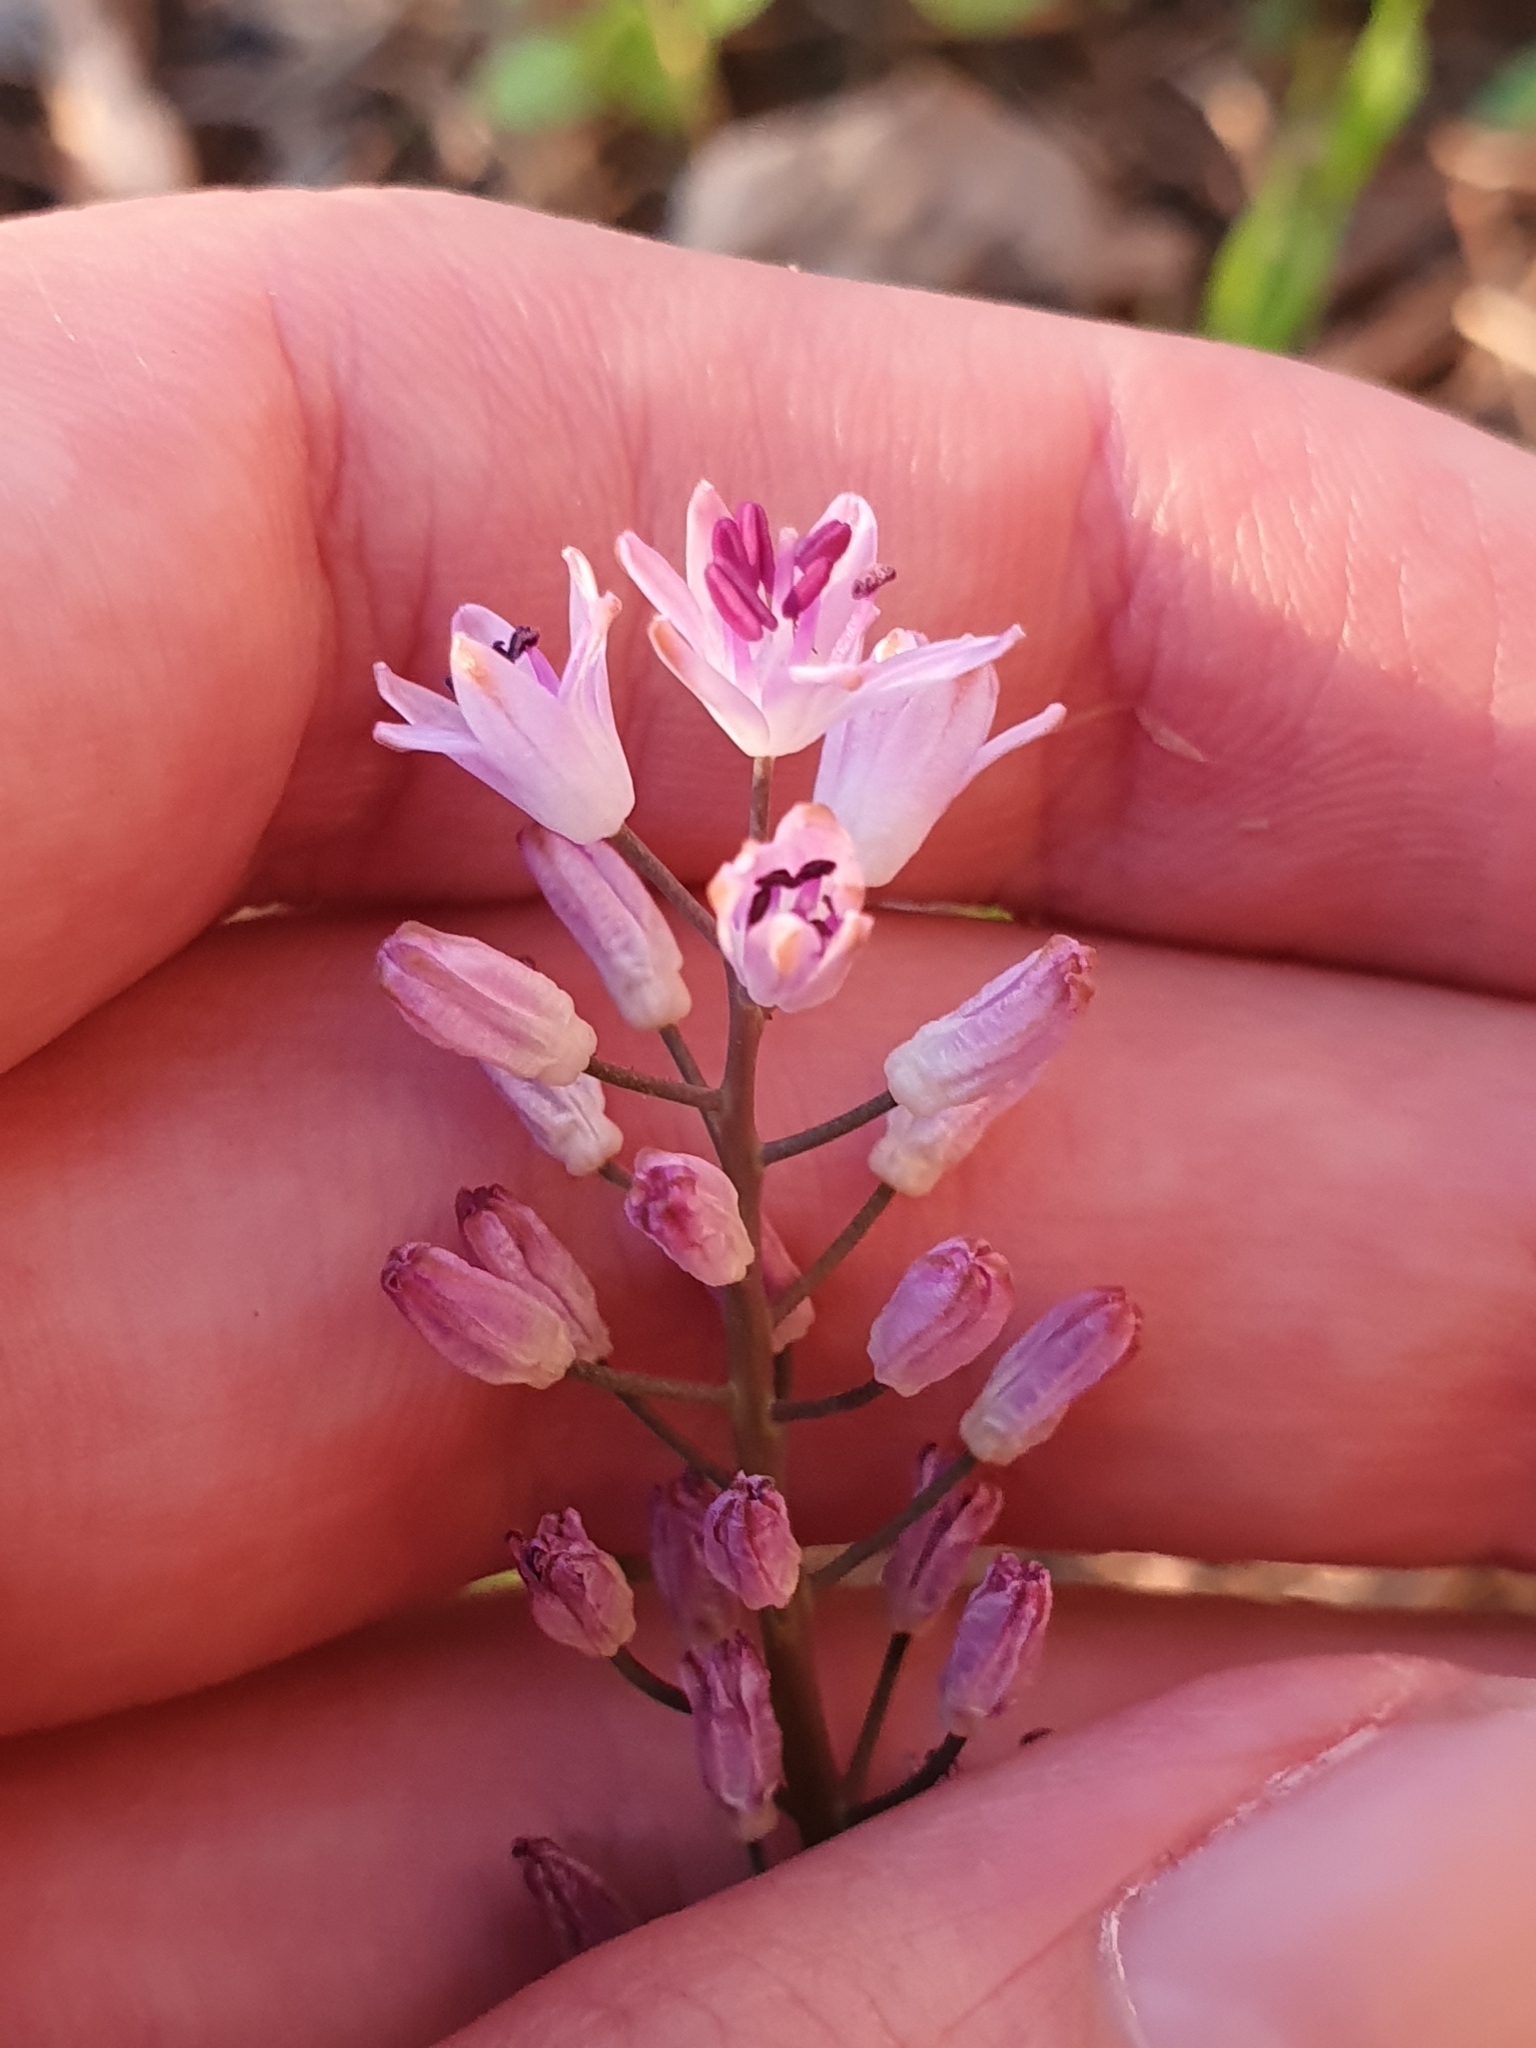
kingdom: Plantae
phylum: Tracheophyta
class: Liliopsida
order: Asparagales
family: Asparagaceae
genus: Prospero
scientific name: Prospero obtusifolium
